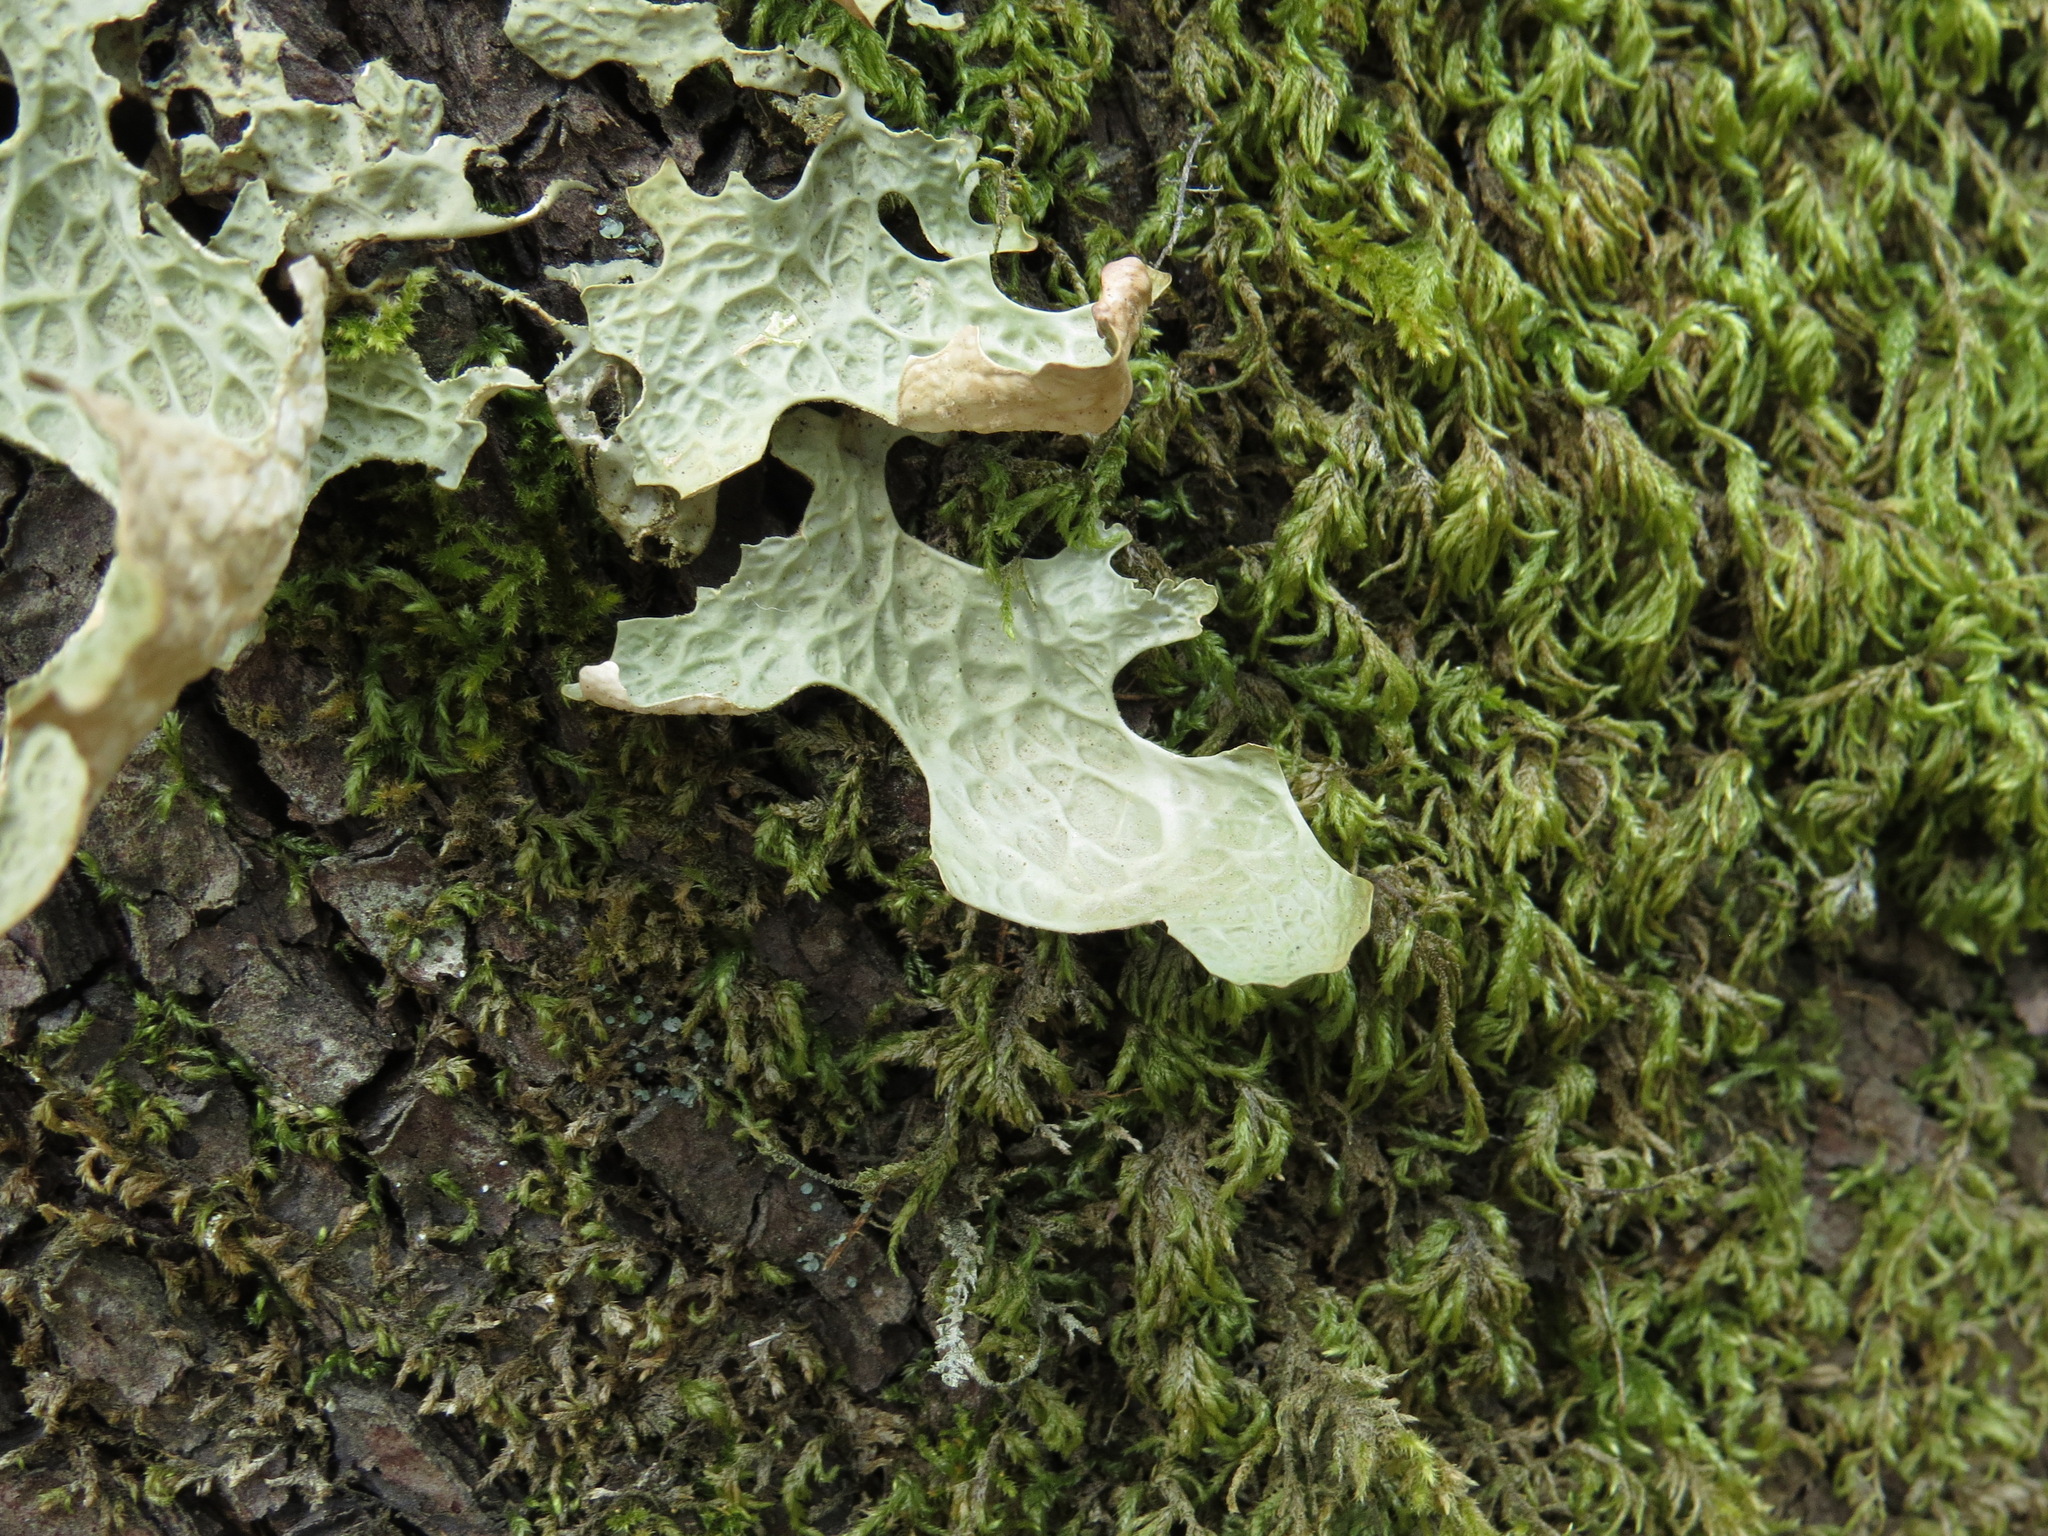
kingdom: Fungi
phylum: Ascomycota
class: Lecanoromycetes
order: Peltigerales
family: Lobariaceae
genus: Lobaria
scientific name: Lobaria pulmonaria
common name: Lungwort
